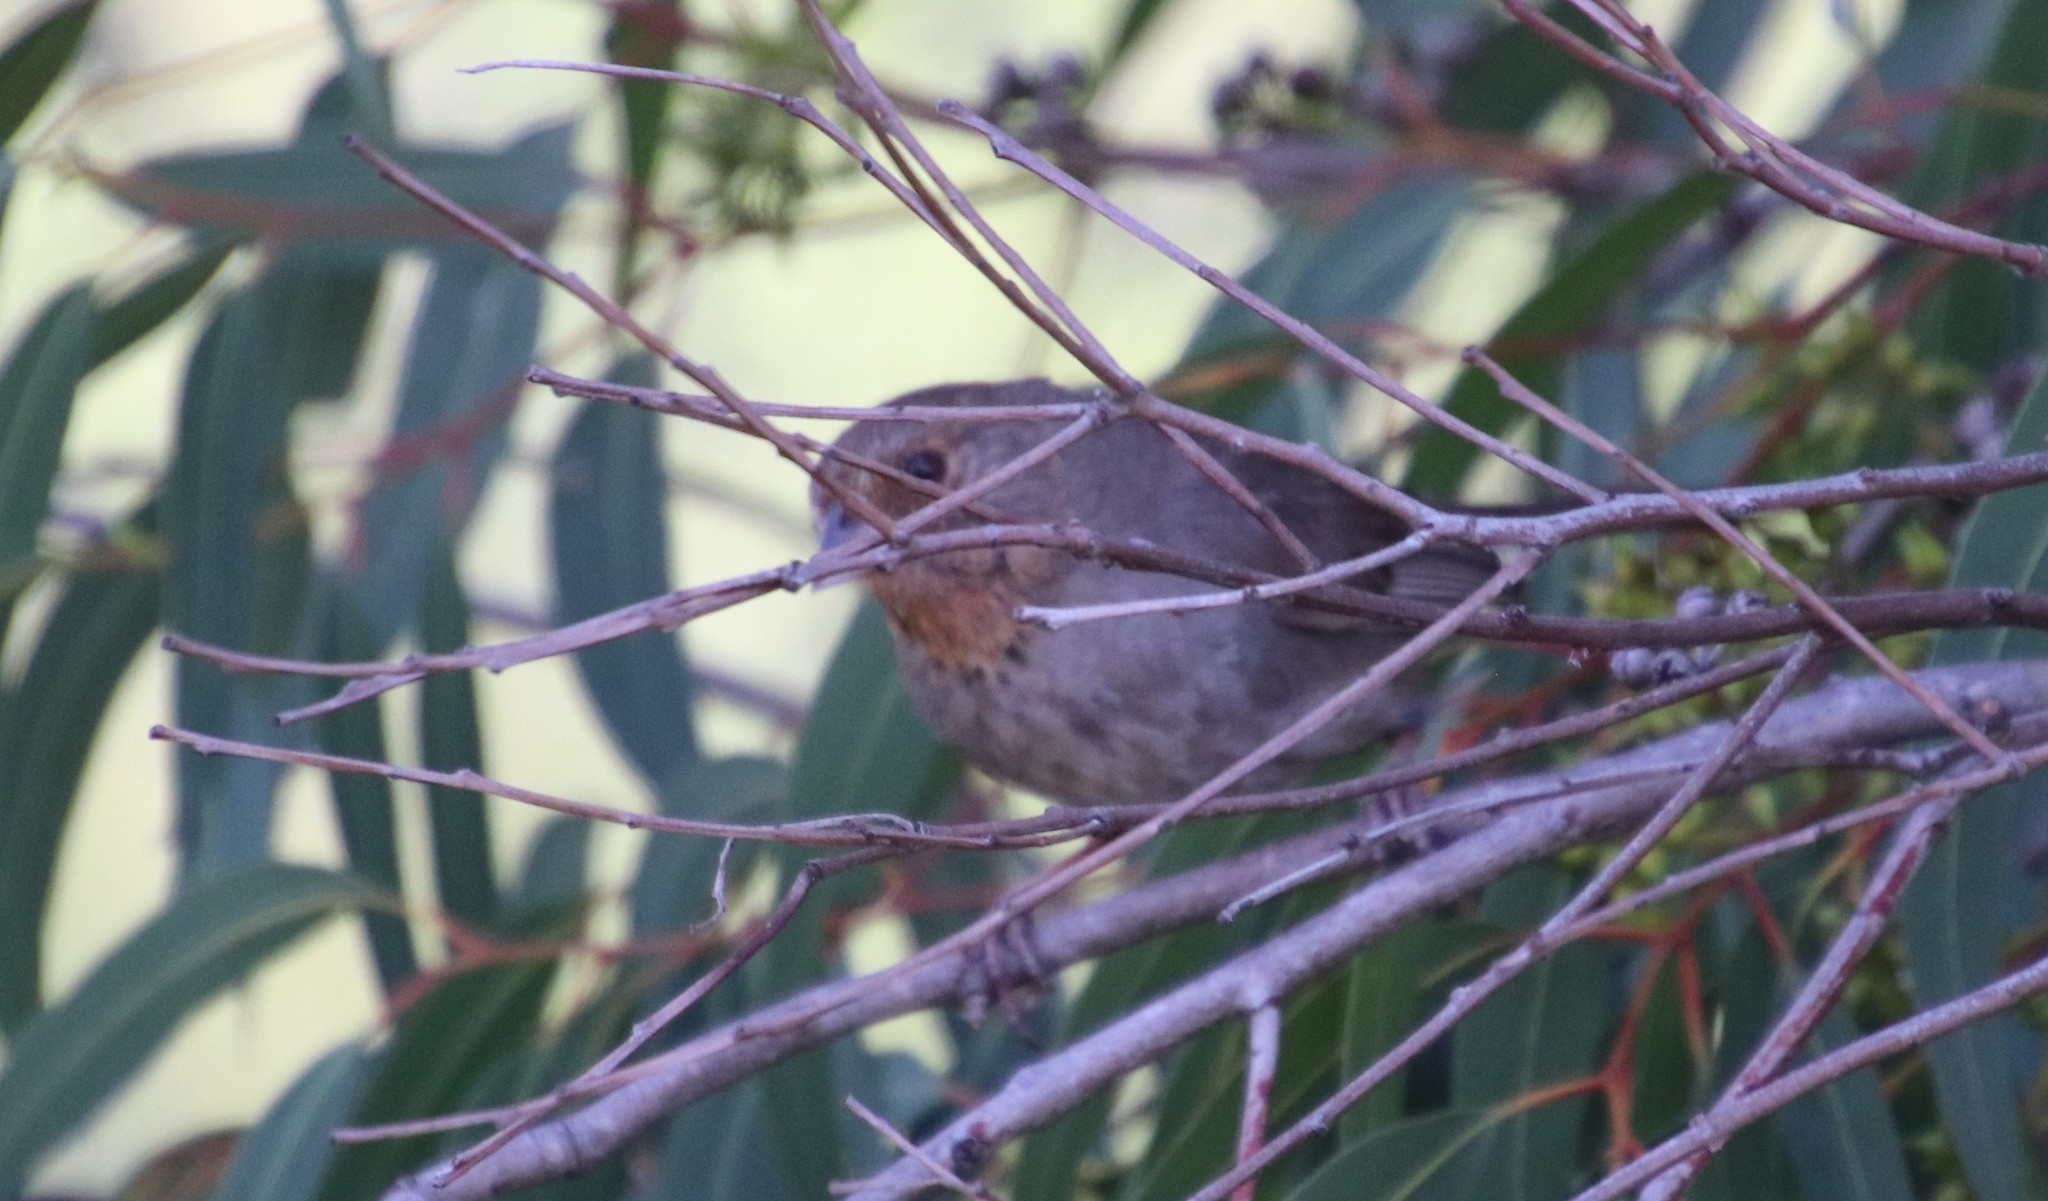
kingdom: Animalia
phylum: Chordata
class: Aves
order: Passeriformes
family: Passerellidae
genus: Melozone
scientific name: Melozone crissalis
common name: California towhee
